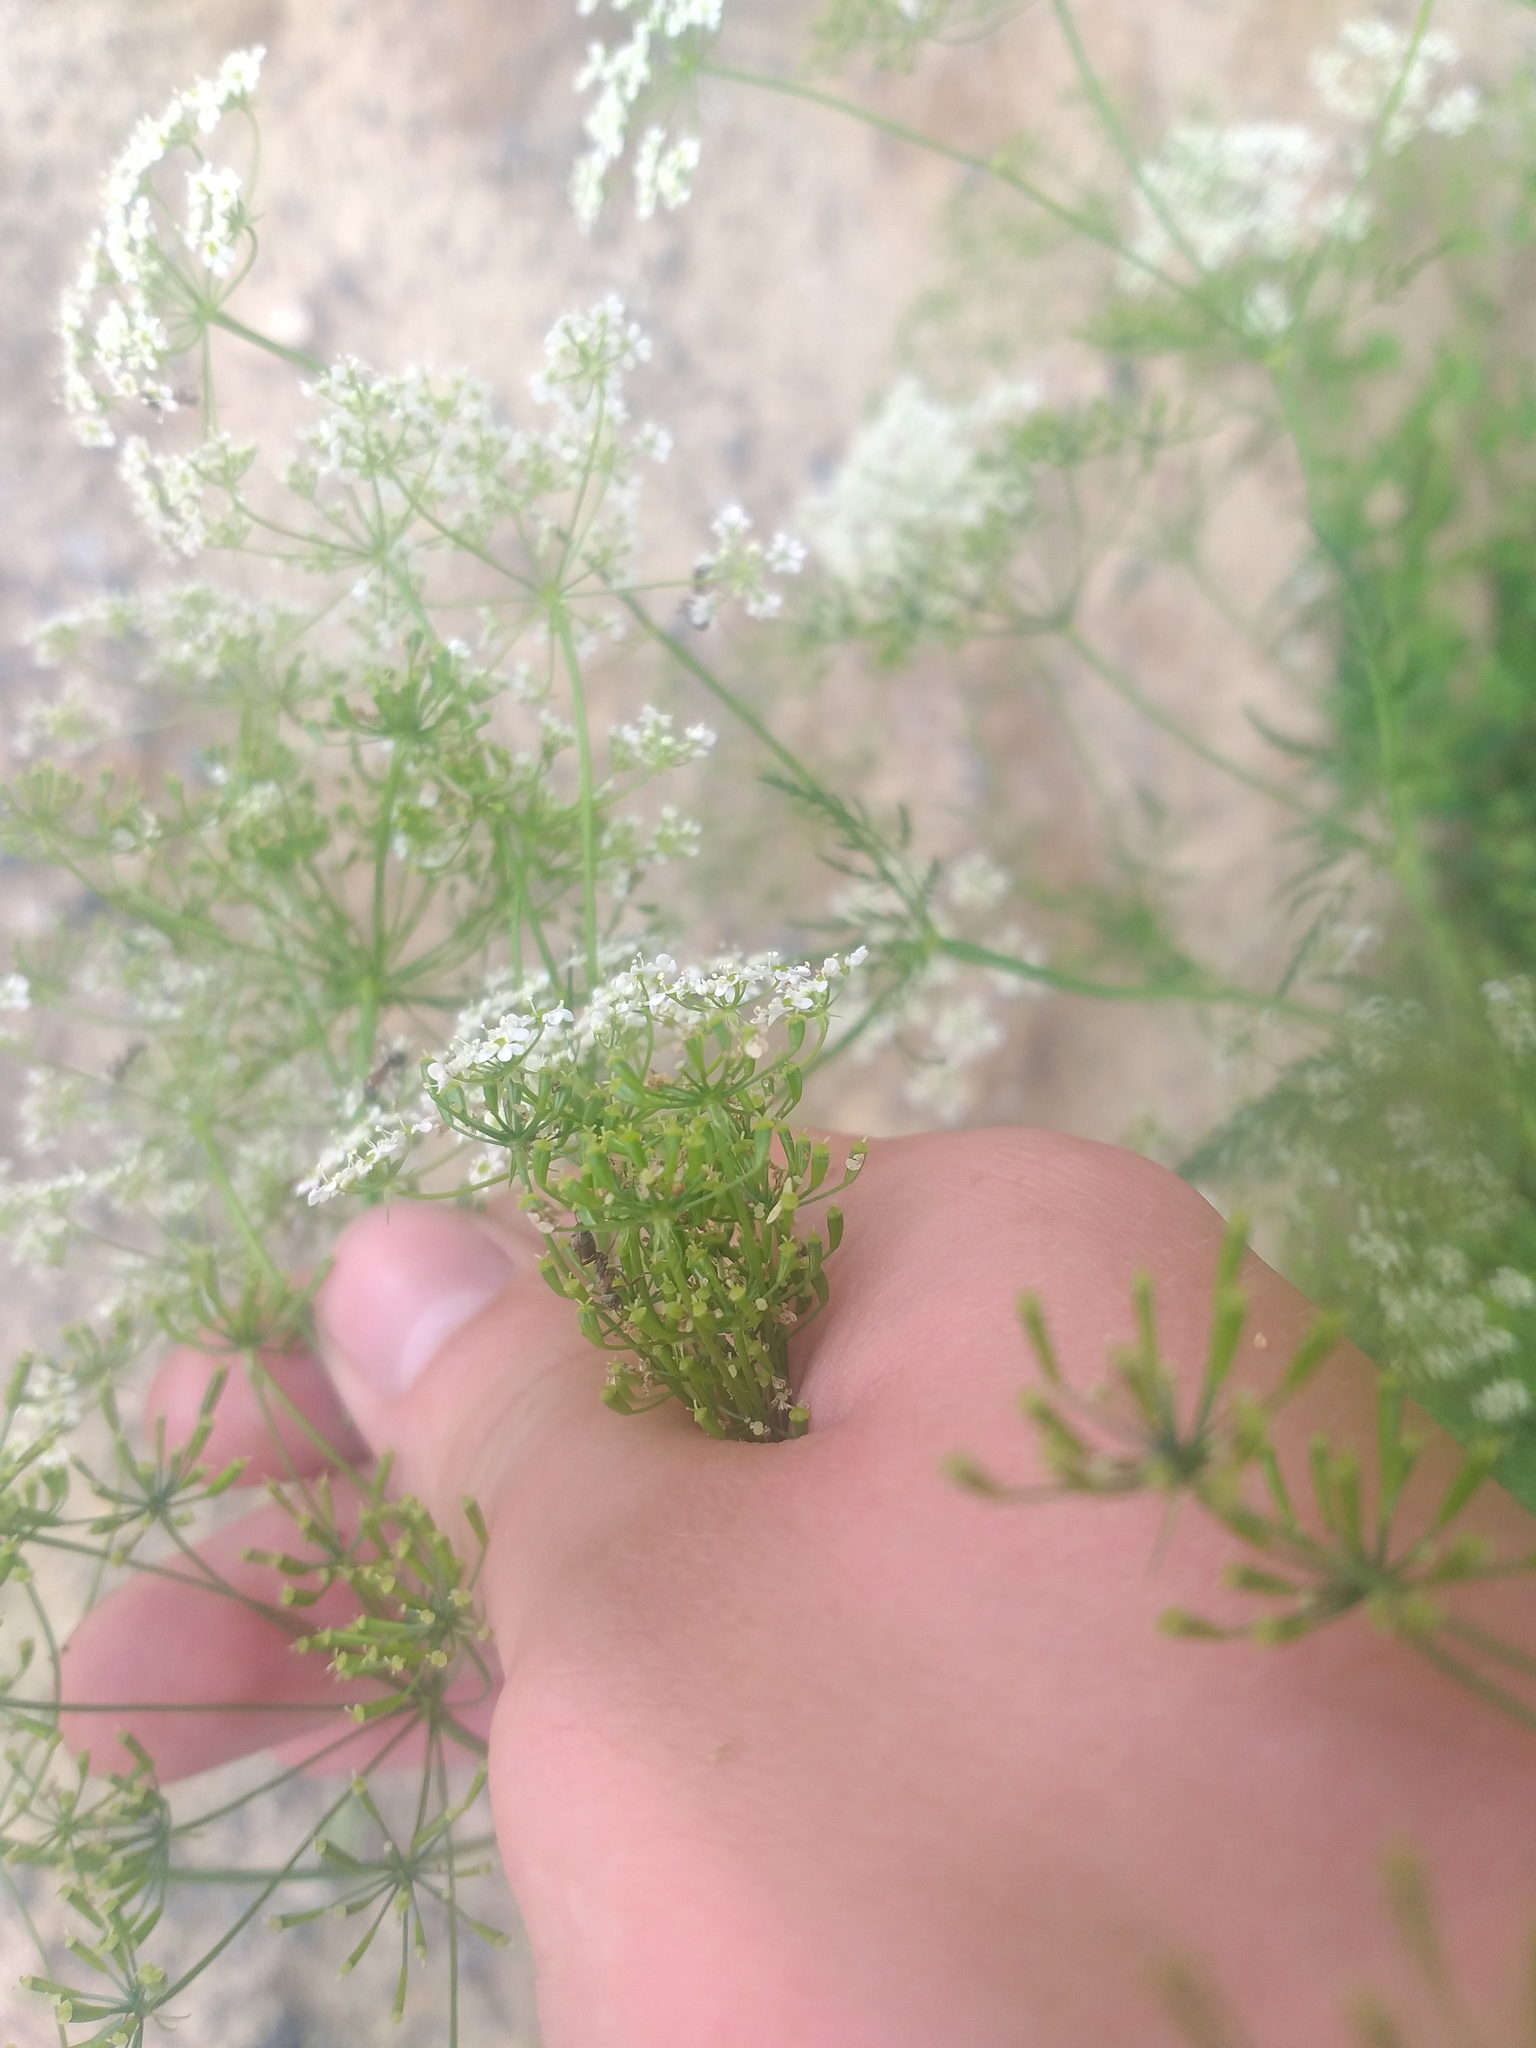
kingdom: Plantae
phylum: Tracheophyta
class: Magnoliopsida
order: Apiales
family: Apiaceae
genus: Chaerophyllum
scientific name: Chaerophyllum bulbosum
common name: Bulbous chervil
